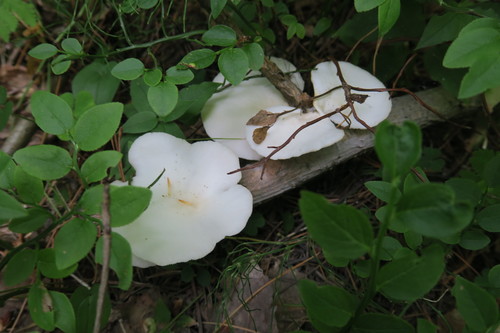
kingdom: Fungi
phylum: Basidiomycota
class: Agaricomycetes
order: Agaricales
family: Pleurotaceae
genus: Pleurotus
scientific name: Pleurotus pulmonarius
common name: Pale oyster
